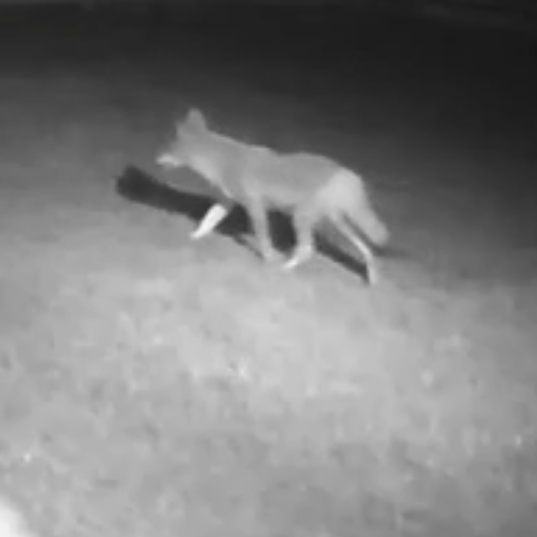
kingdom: Animalia
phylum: Chordata
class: Mammalia
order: Carnivora
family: Canidae
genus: Canis
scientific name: Canis latrans
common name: Coyote
